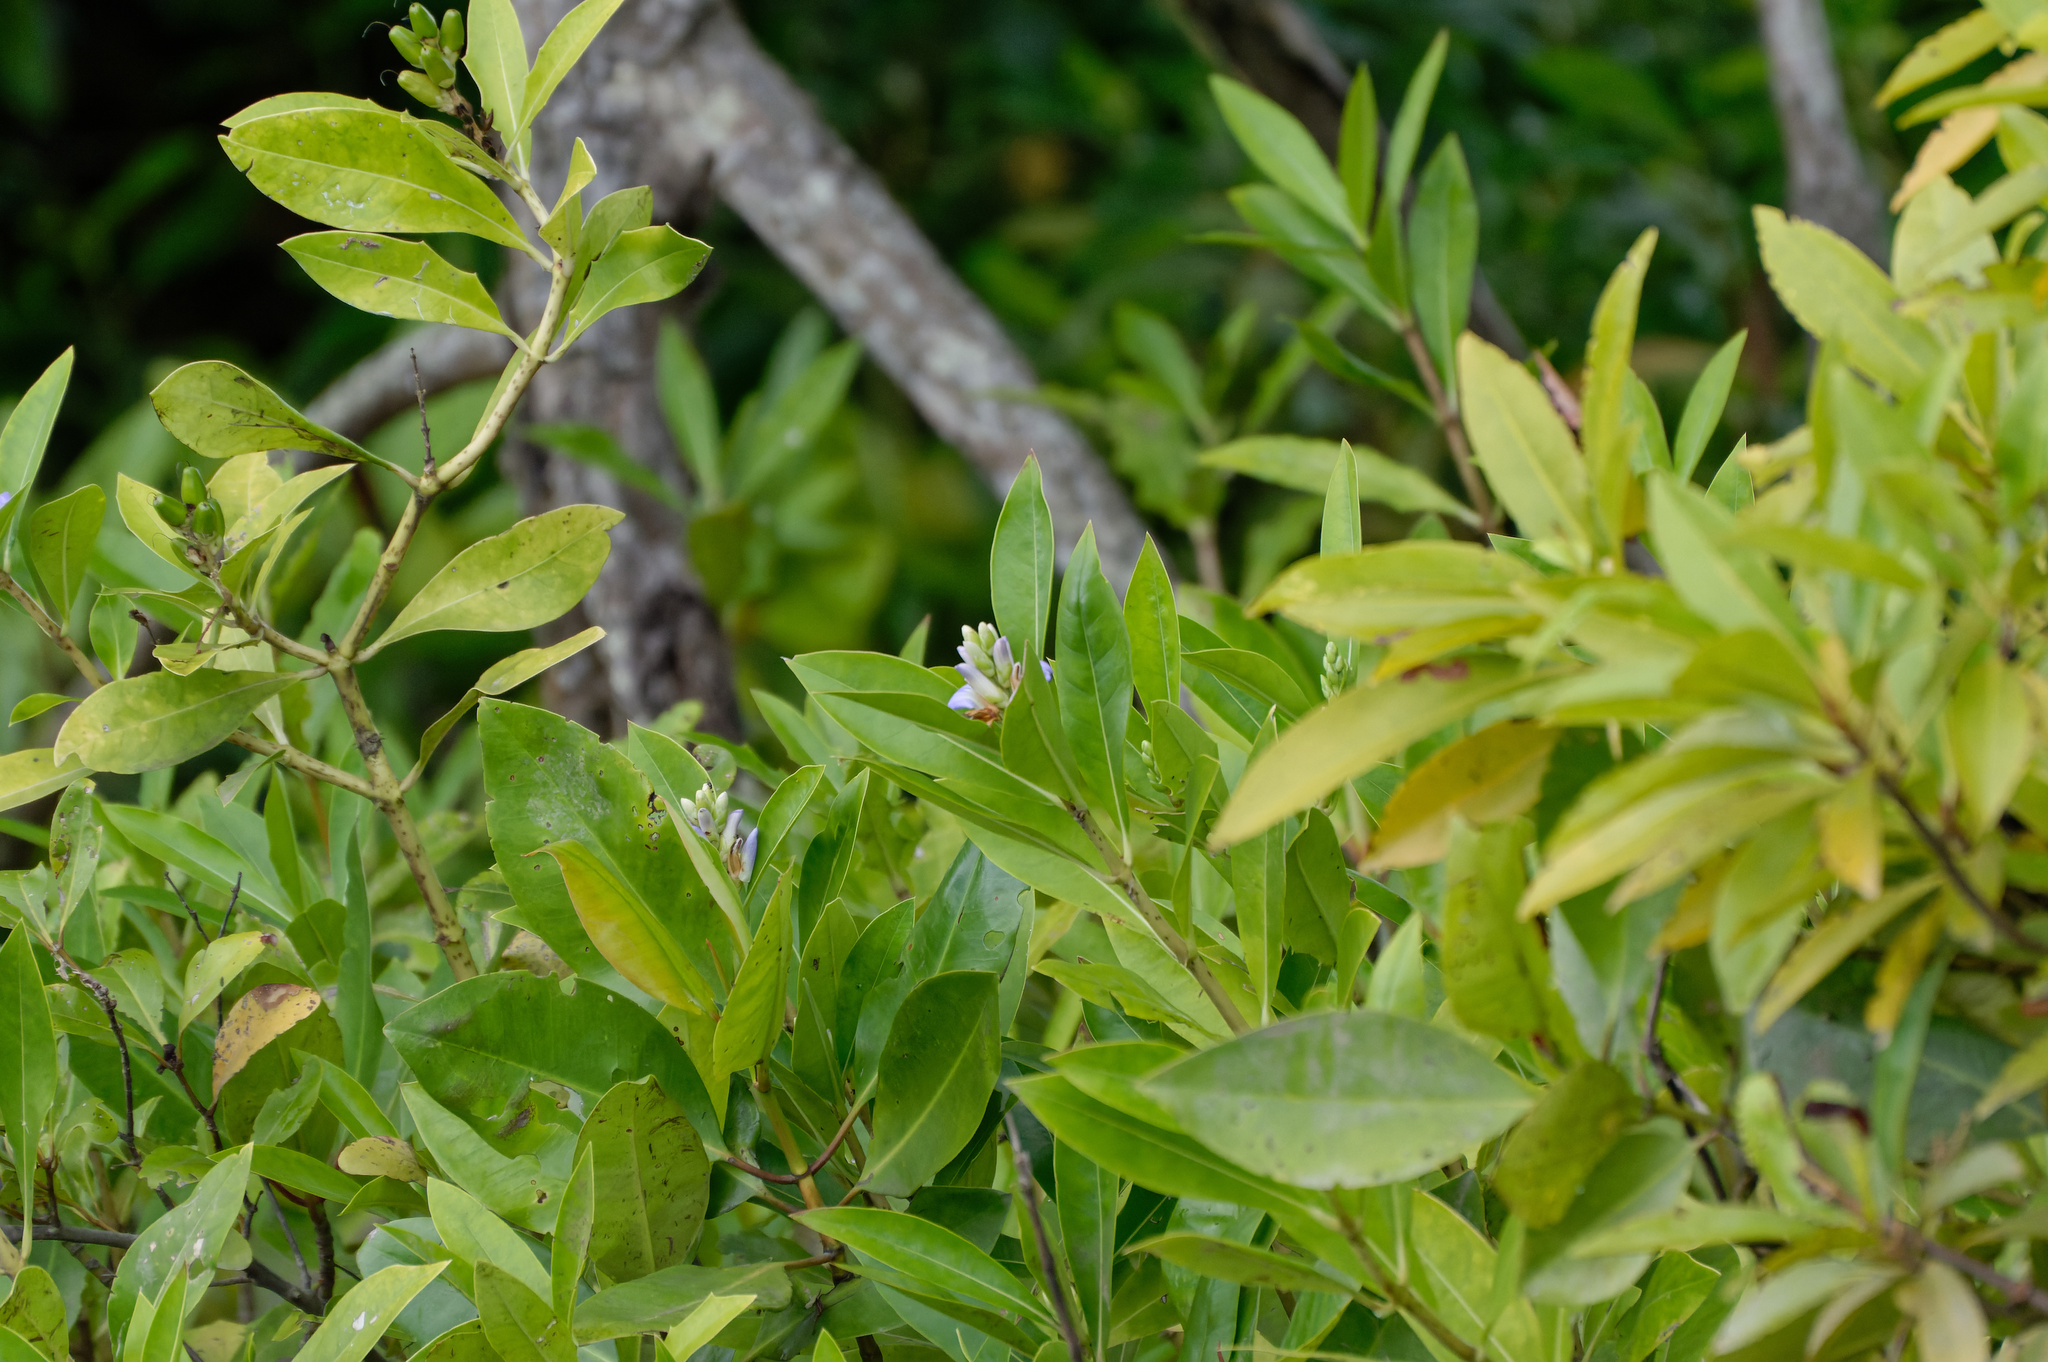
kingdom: Plantae
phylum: Tracheophyta
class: Magnoliopsida
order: Lamiales
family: Acanthaceae
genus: Acanthus
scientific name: Acanthus ilicifolius
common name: Holy mangrove
